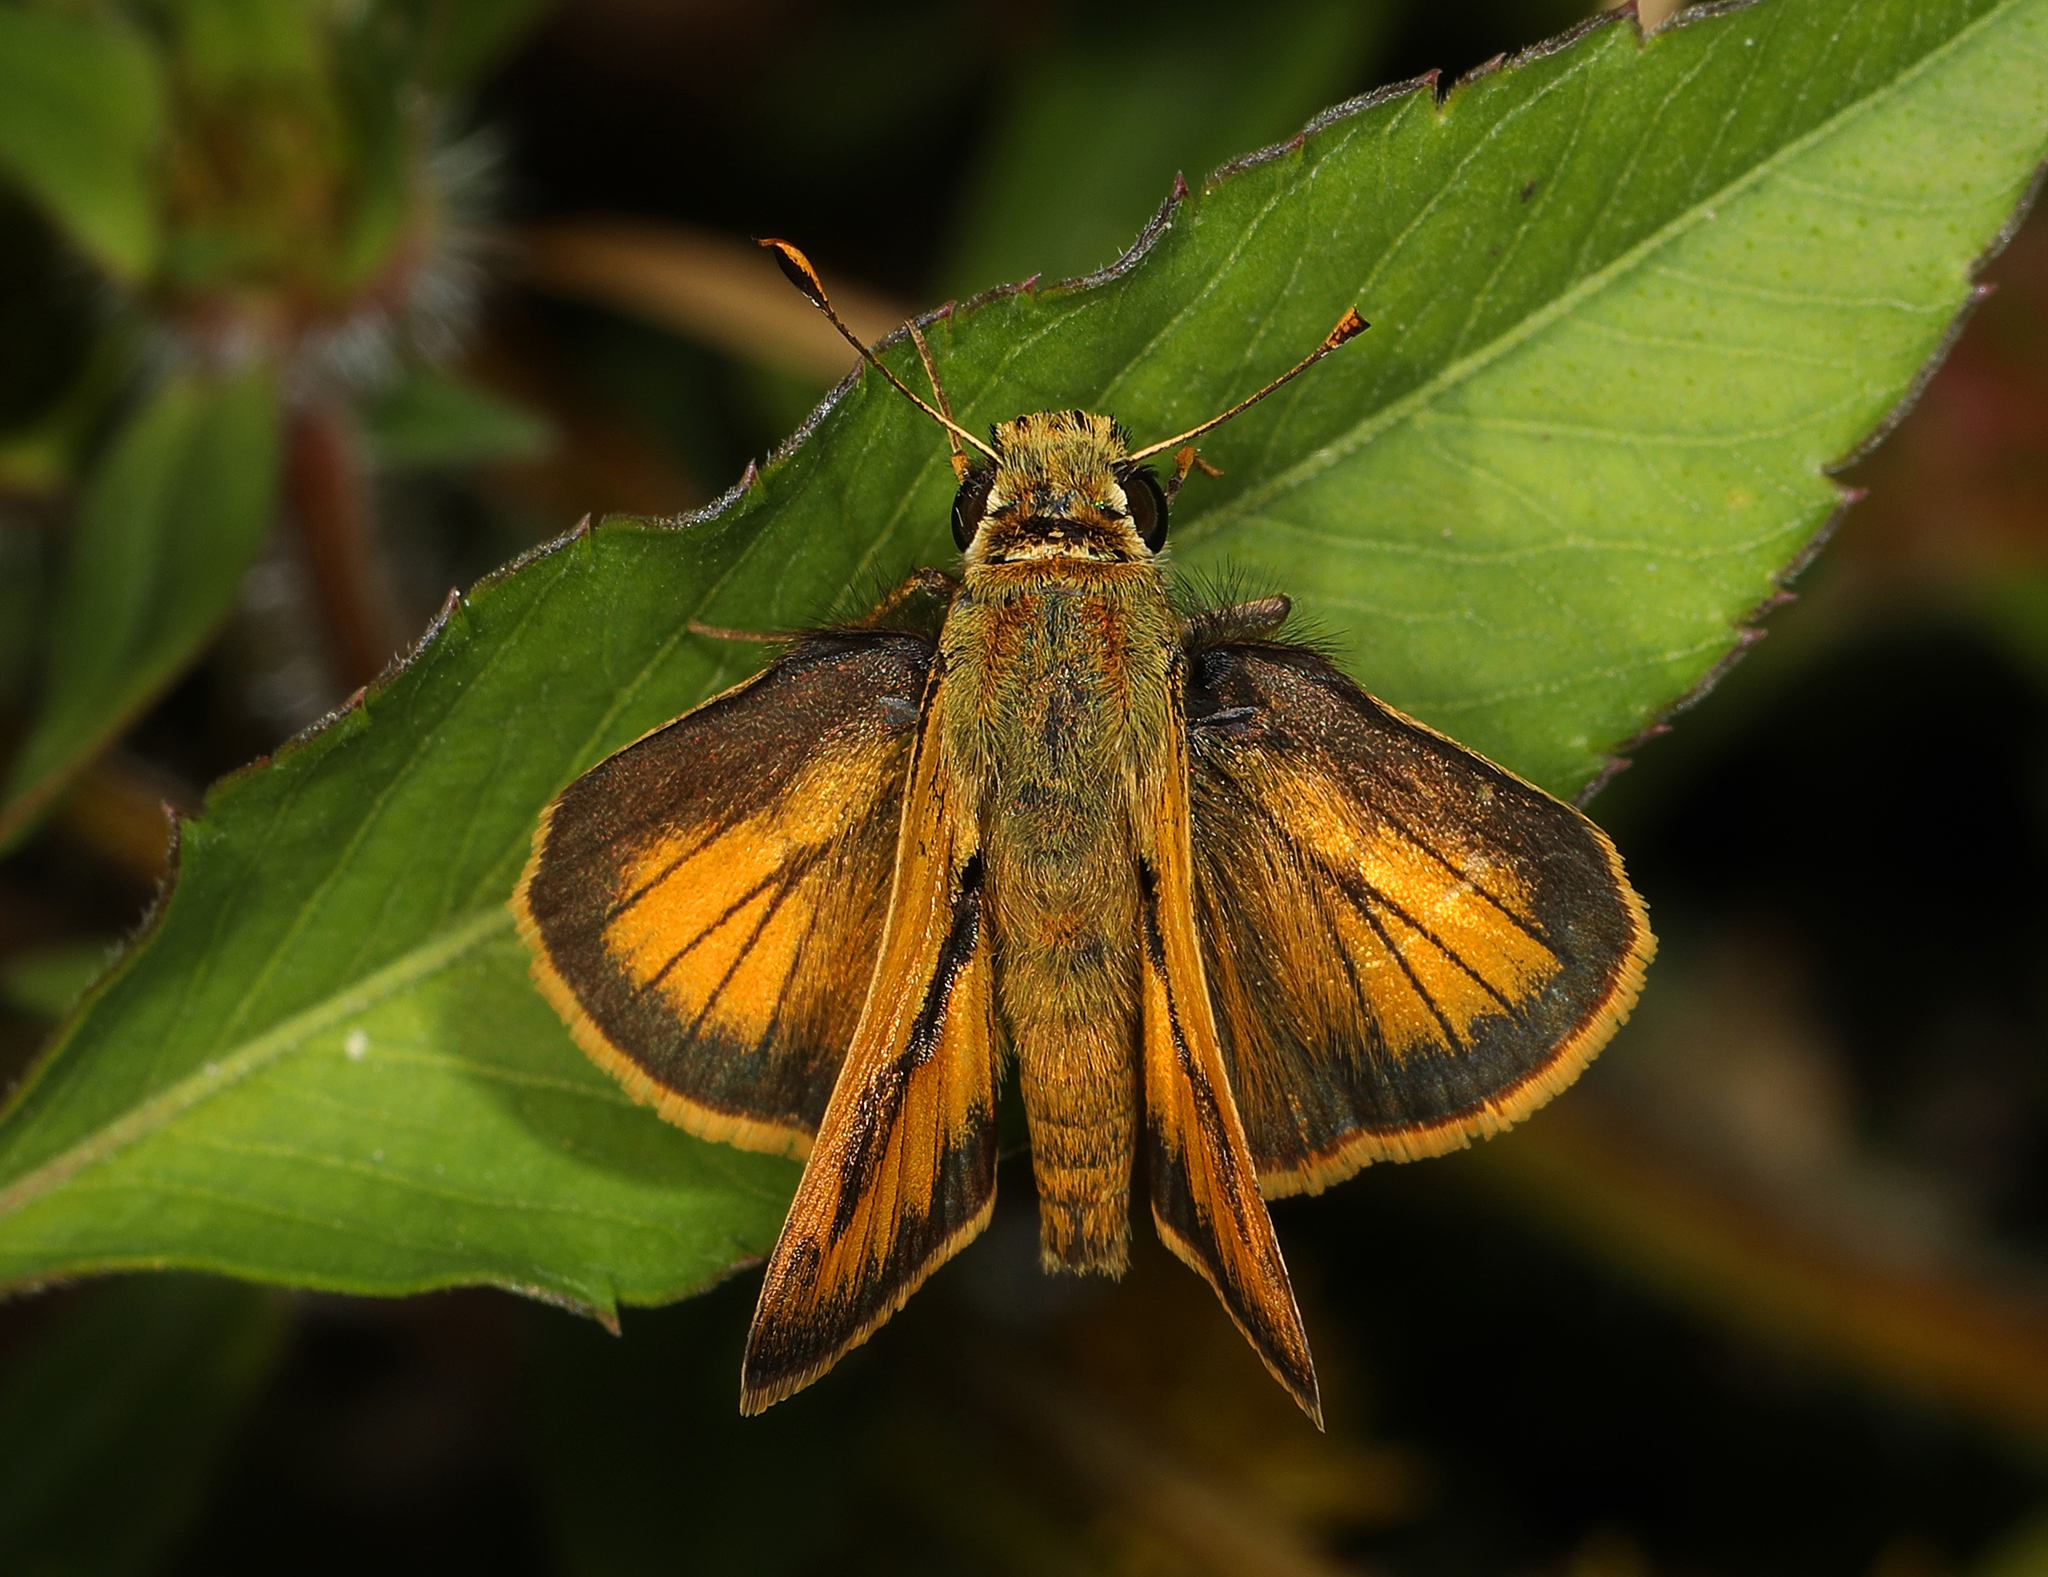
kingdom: Animalia
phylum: Arthropoda
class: Insecta
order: Lepidoptera
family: Hesperiidae
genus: Polites
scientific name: Polites vibex
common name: Whirlabout
